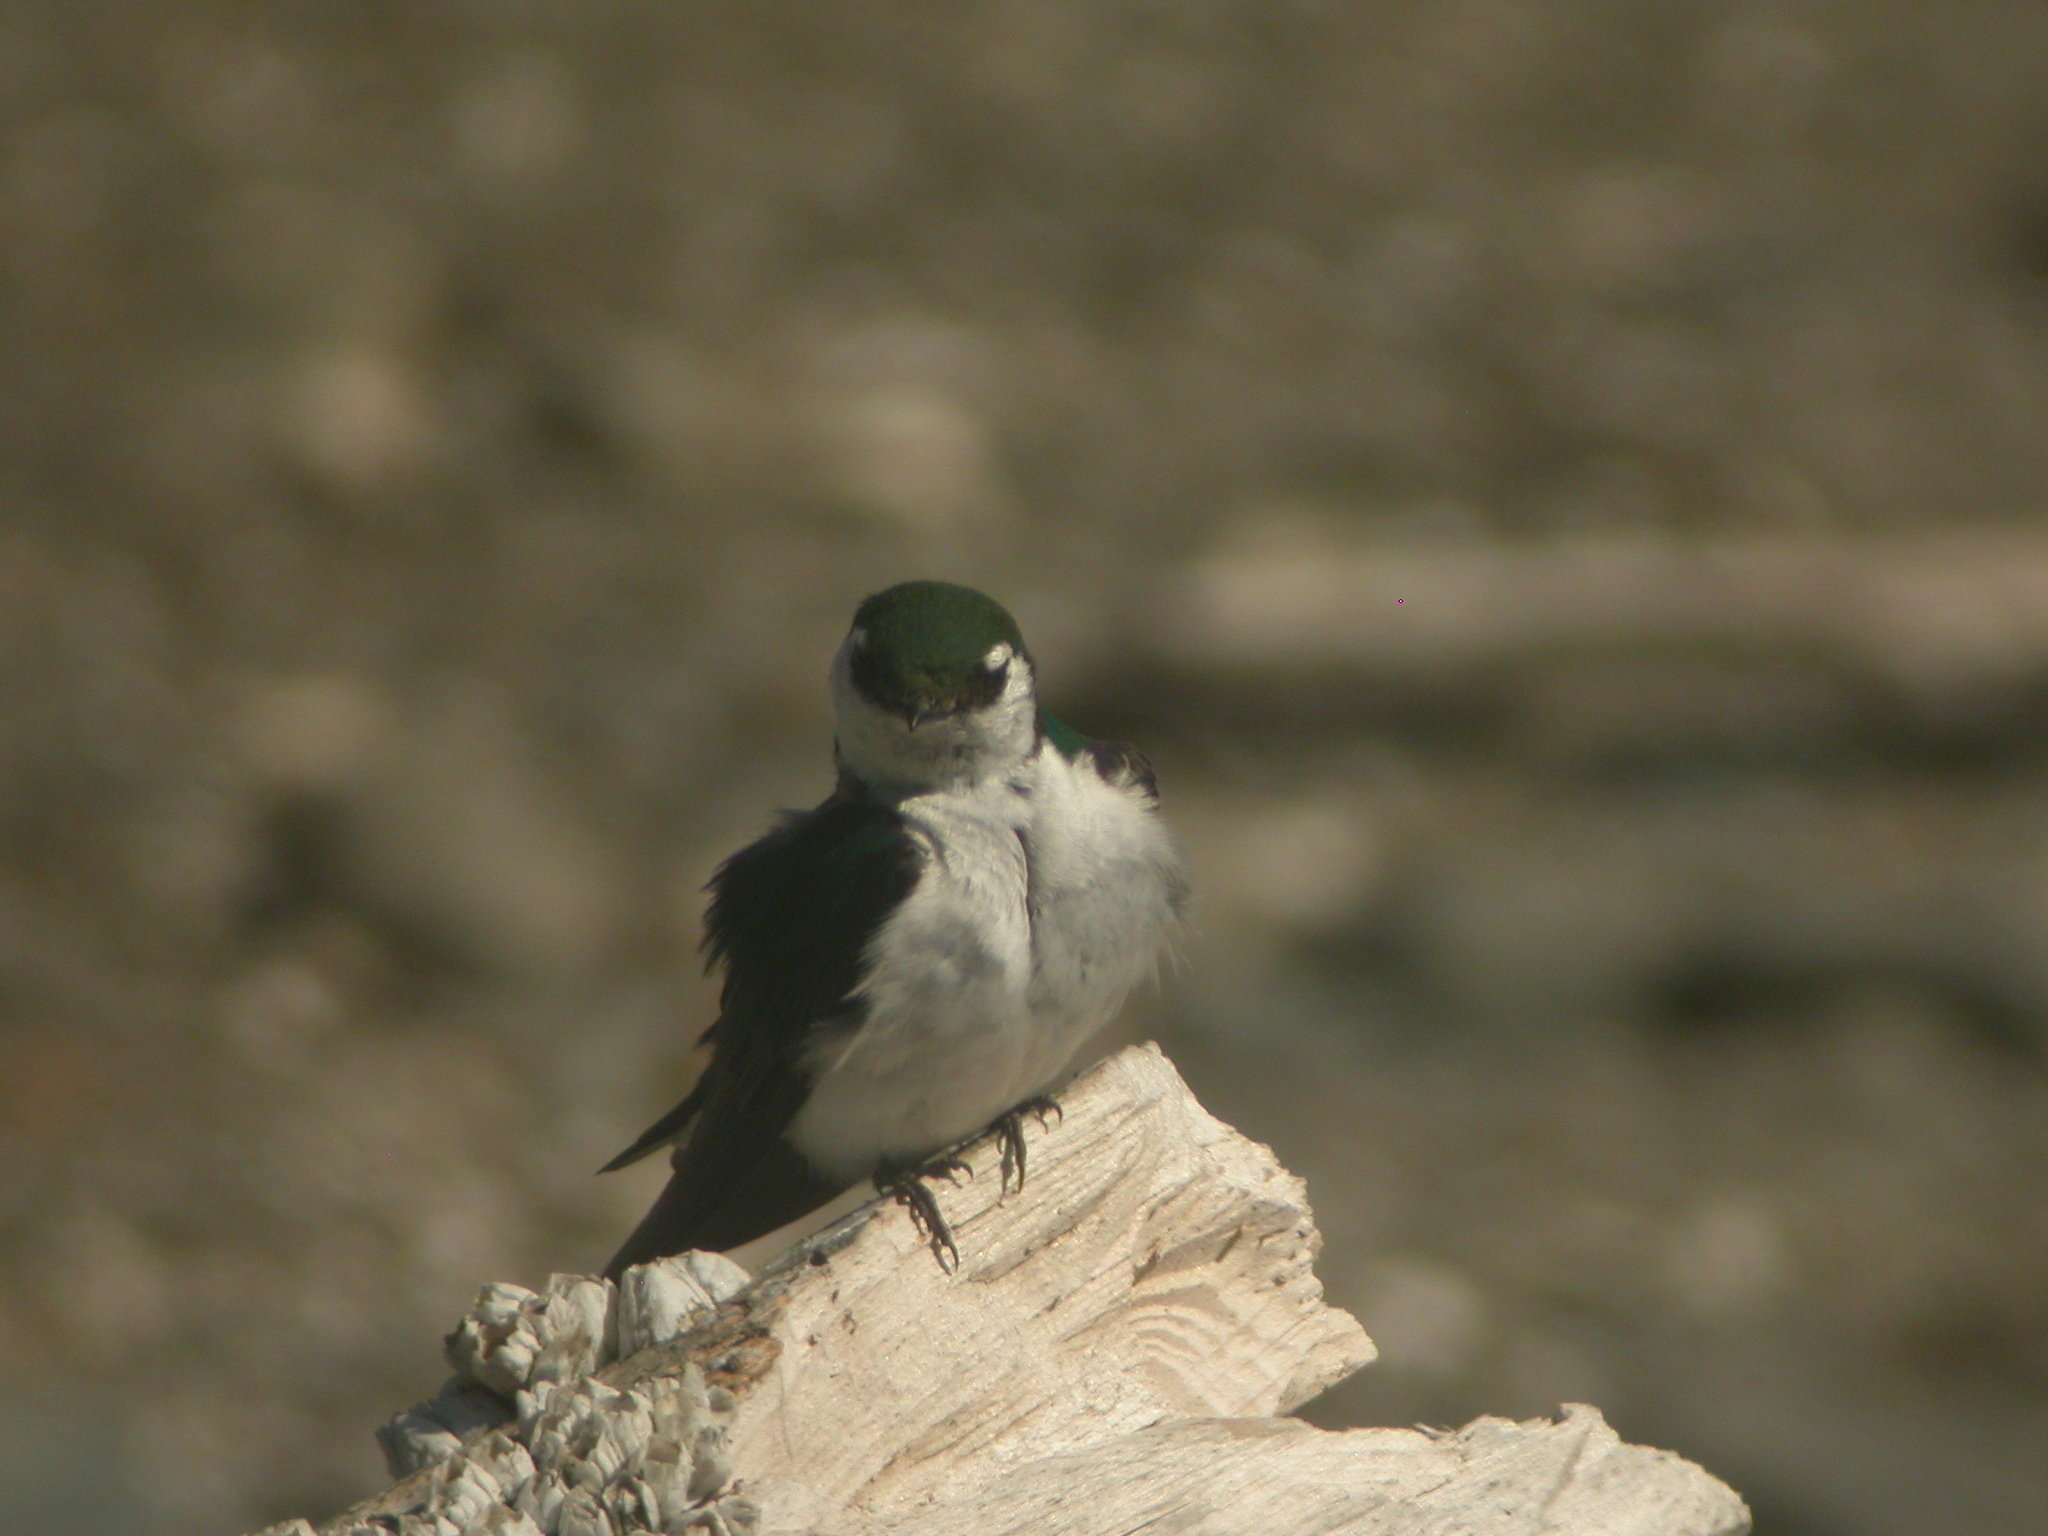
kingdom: Animalia
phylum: Chordata
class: Aves
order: Passeriformes
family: Hirundinidae
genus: Tachycineta
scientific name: Tachycineta thalassina
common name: Violet-green swallow
